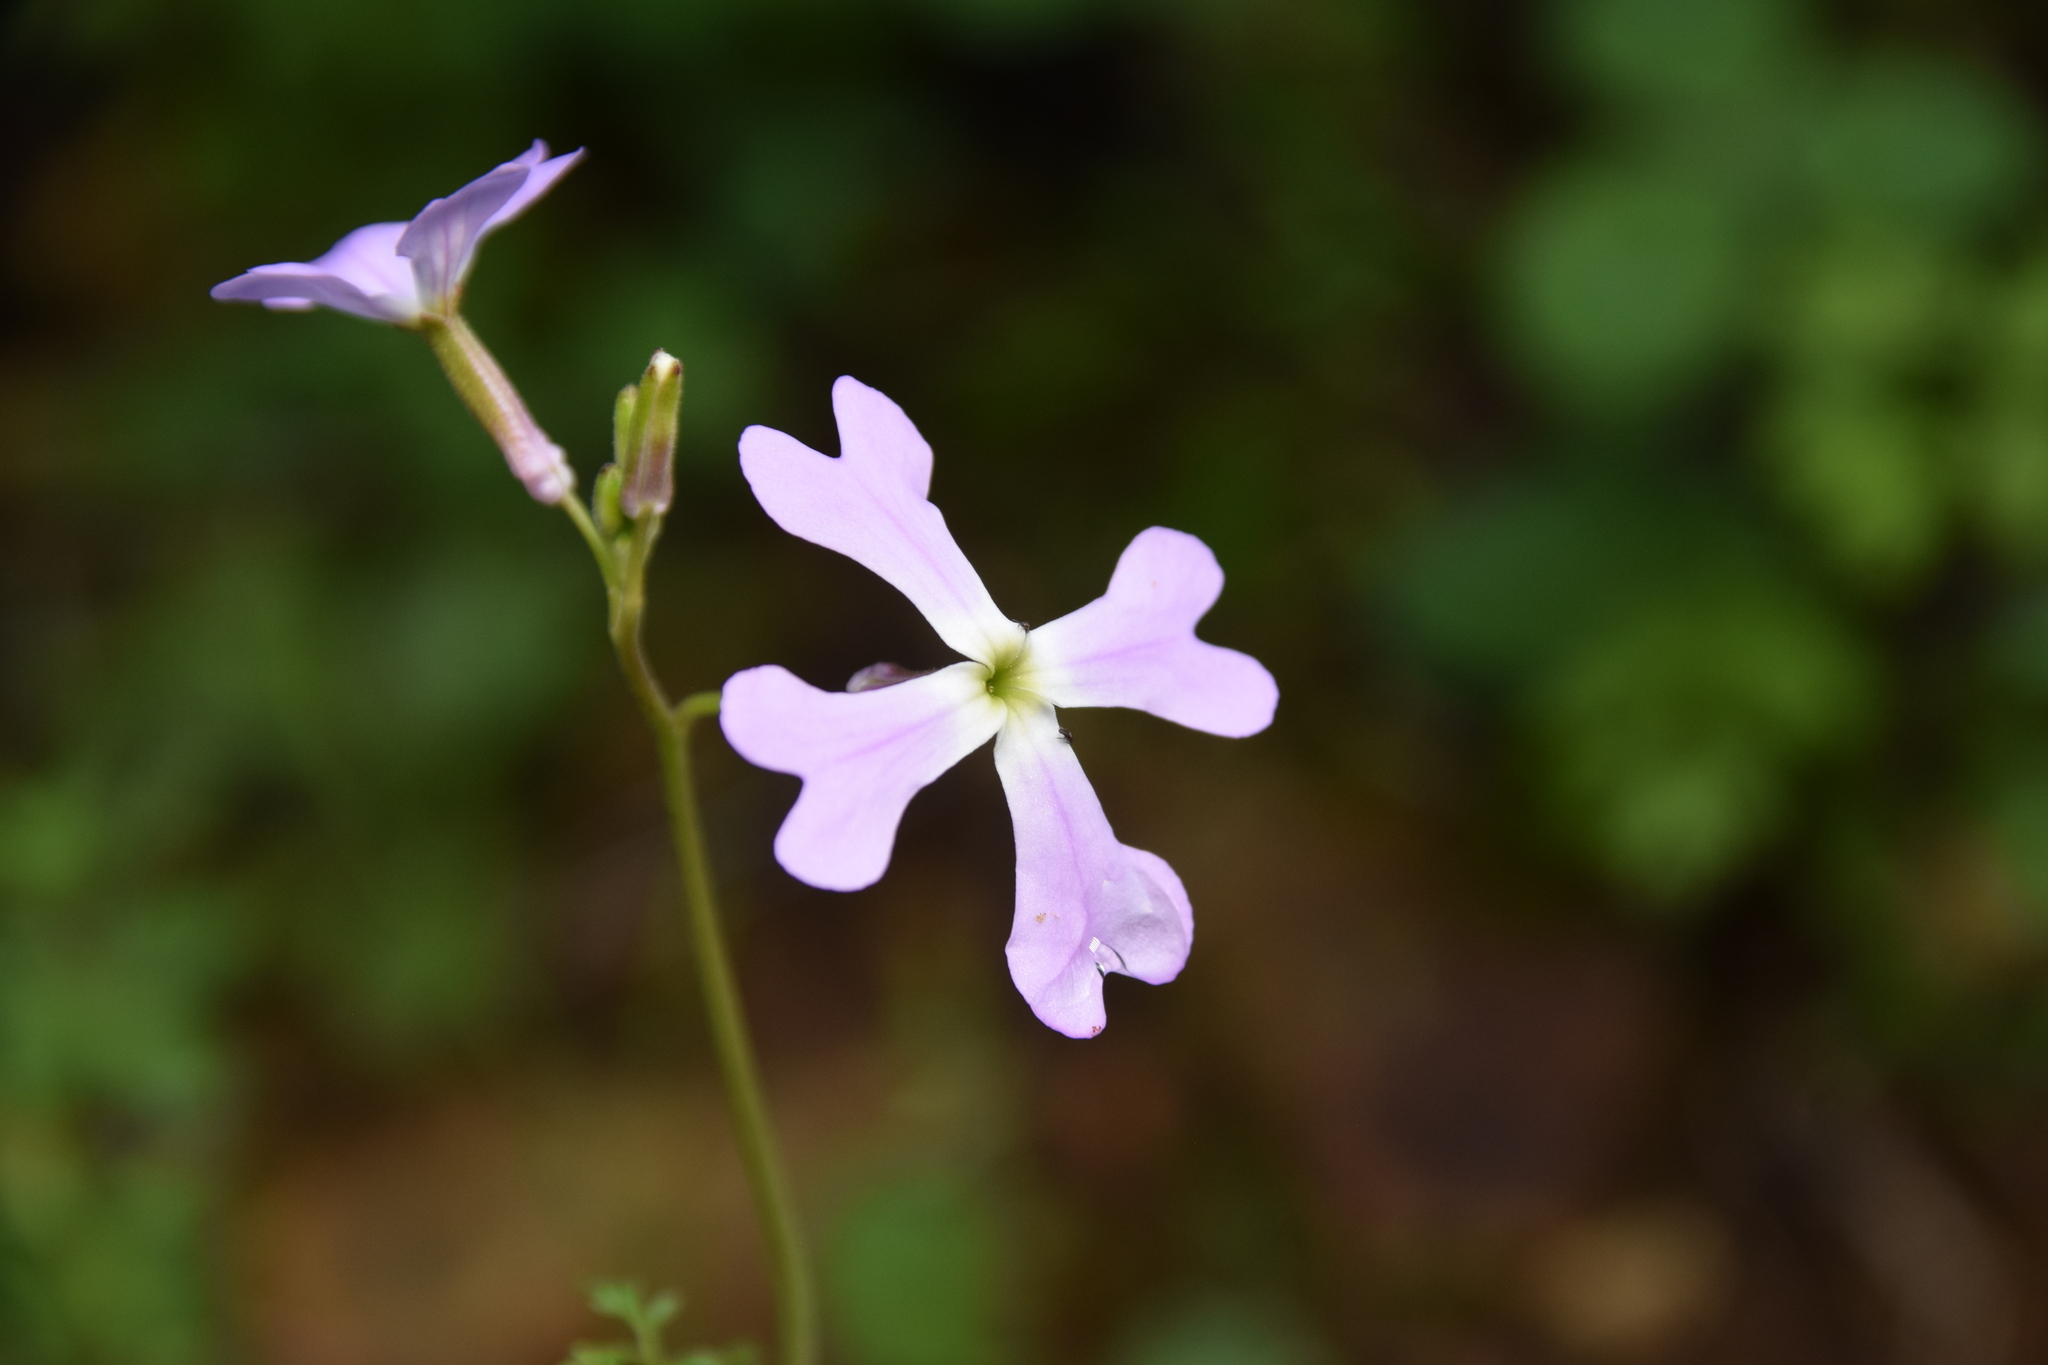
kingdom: Plantae
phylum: Tracheophyta
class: Magnoliopsida
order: Brassicales
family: Brassicaceae
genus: Ricotia
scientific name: Ricotia lunaria
